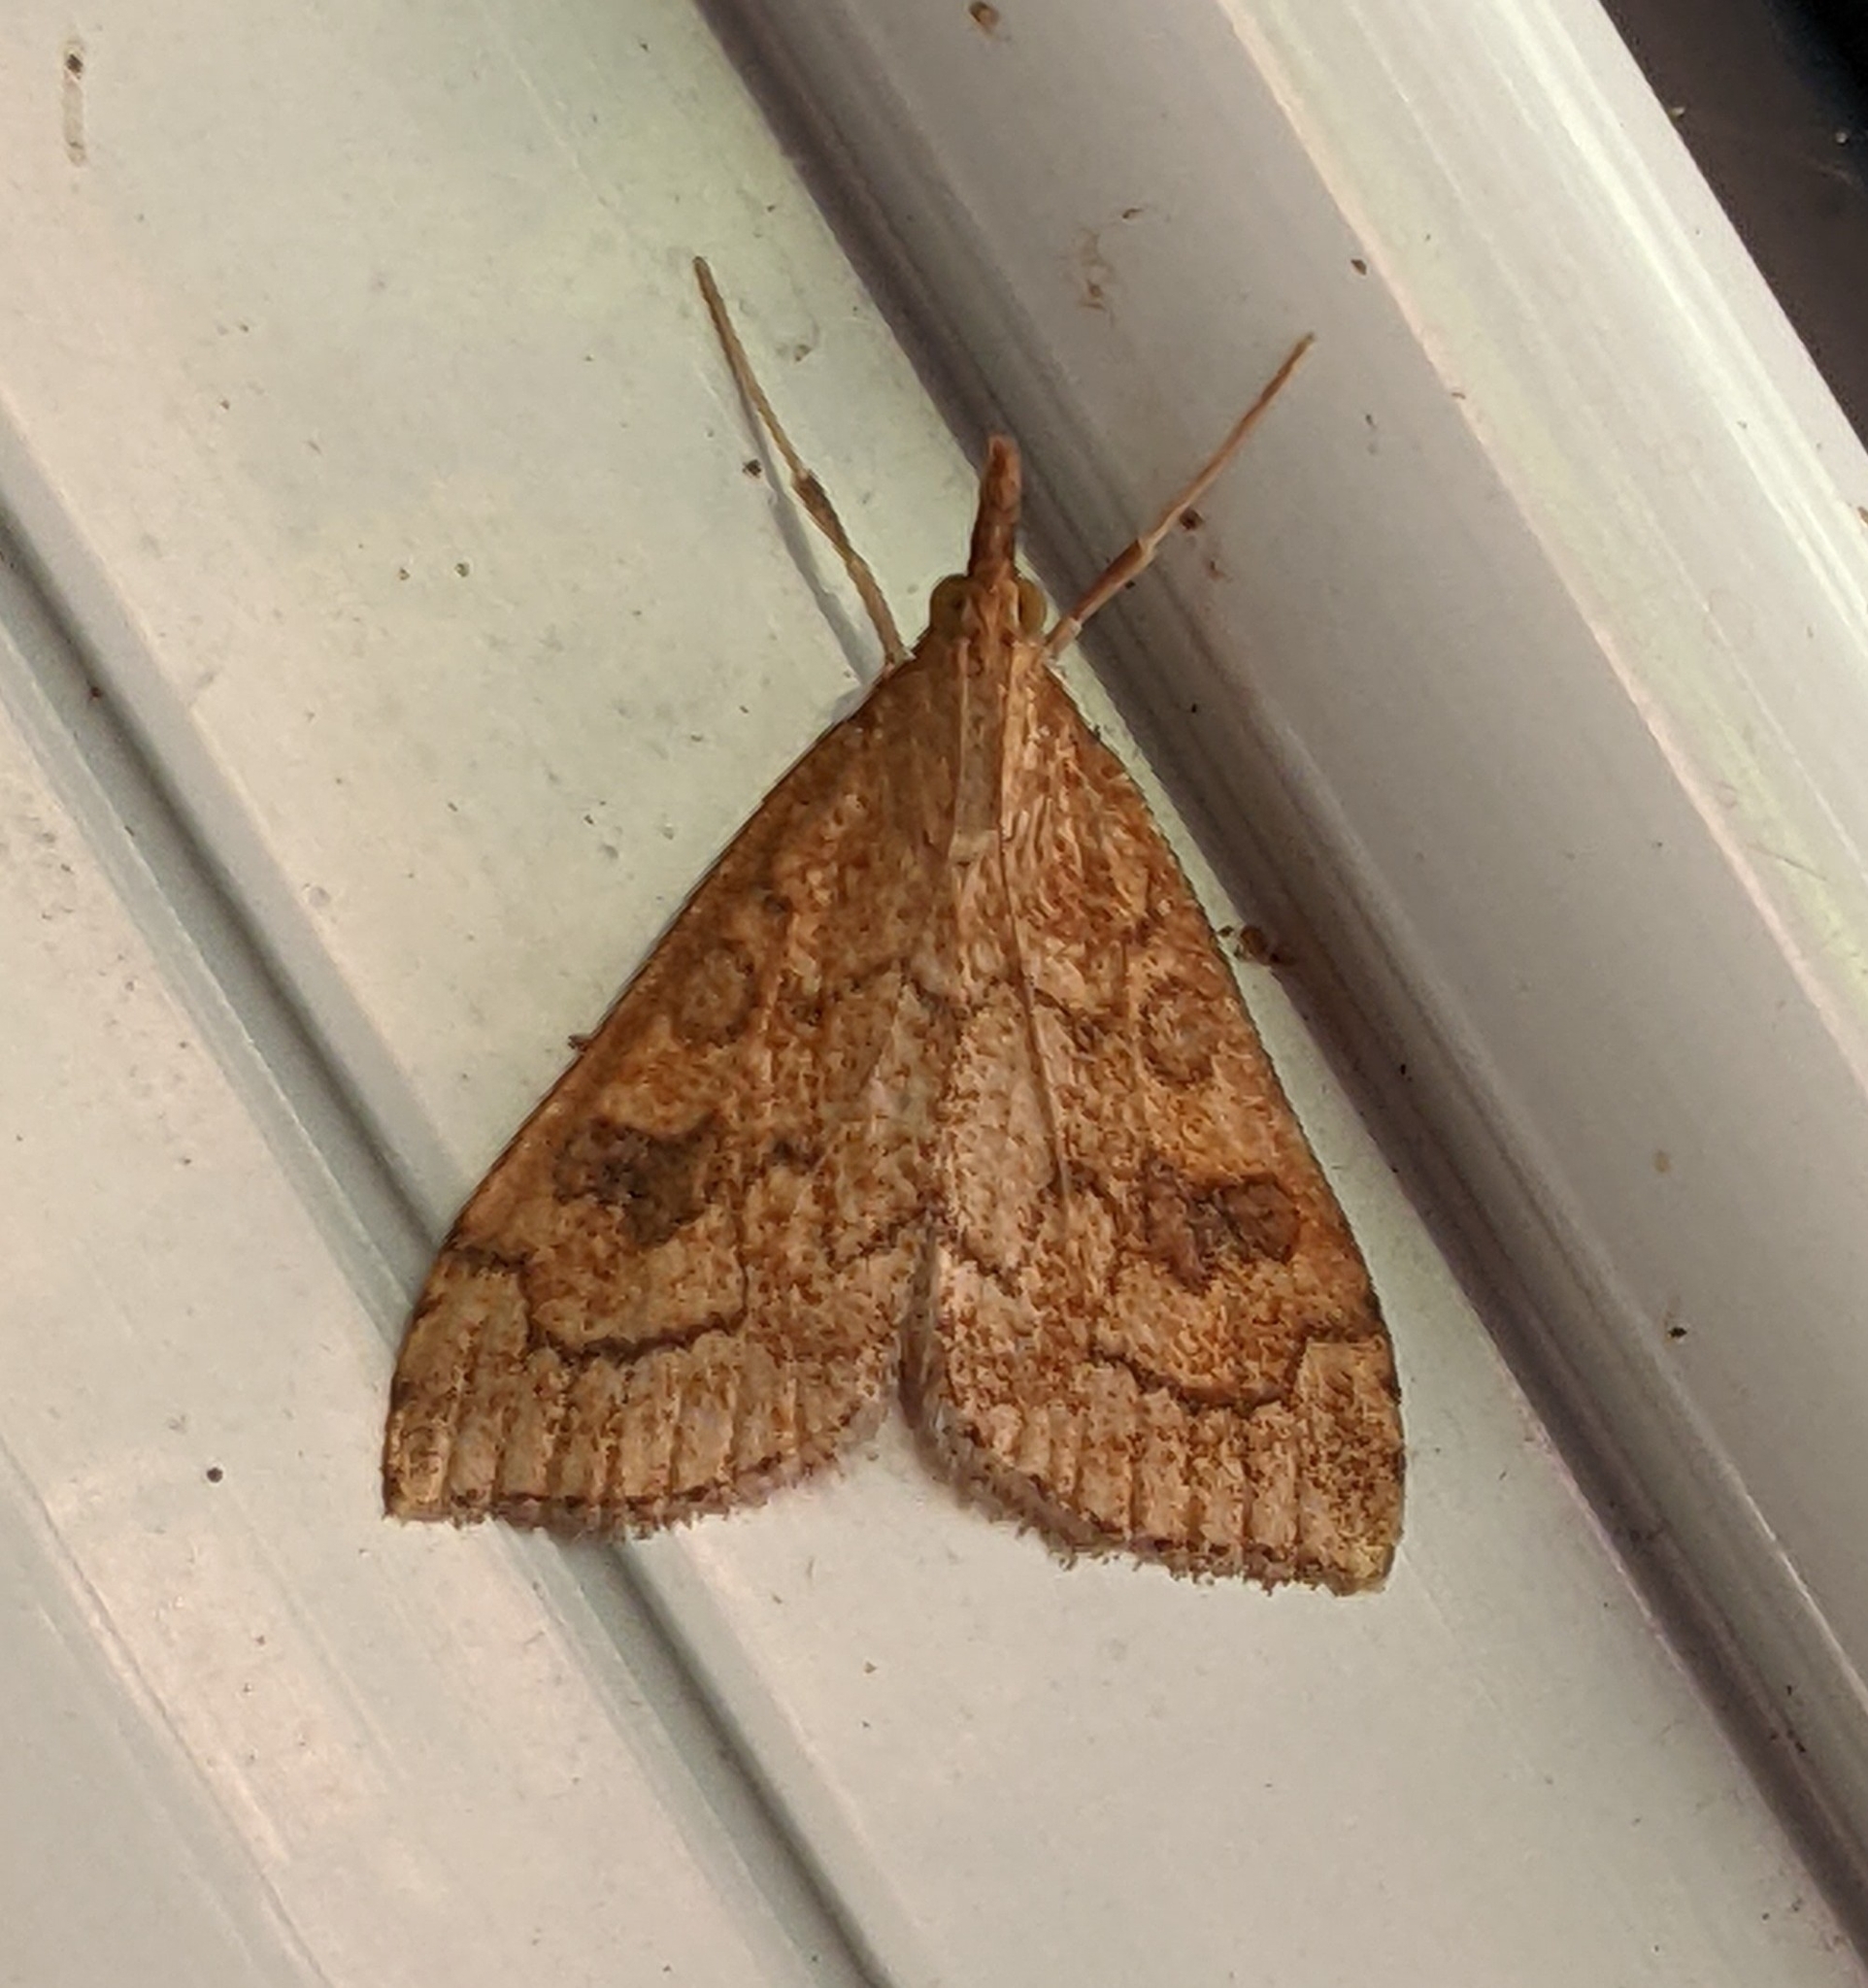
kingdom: Animalia
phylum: Arthropoda
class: Insecta
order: Lepidoptera
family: Crambidae
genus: Udea
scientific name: Udea profundalis
